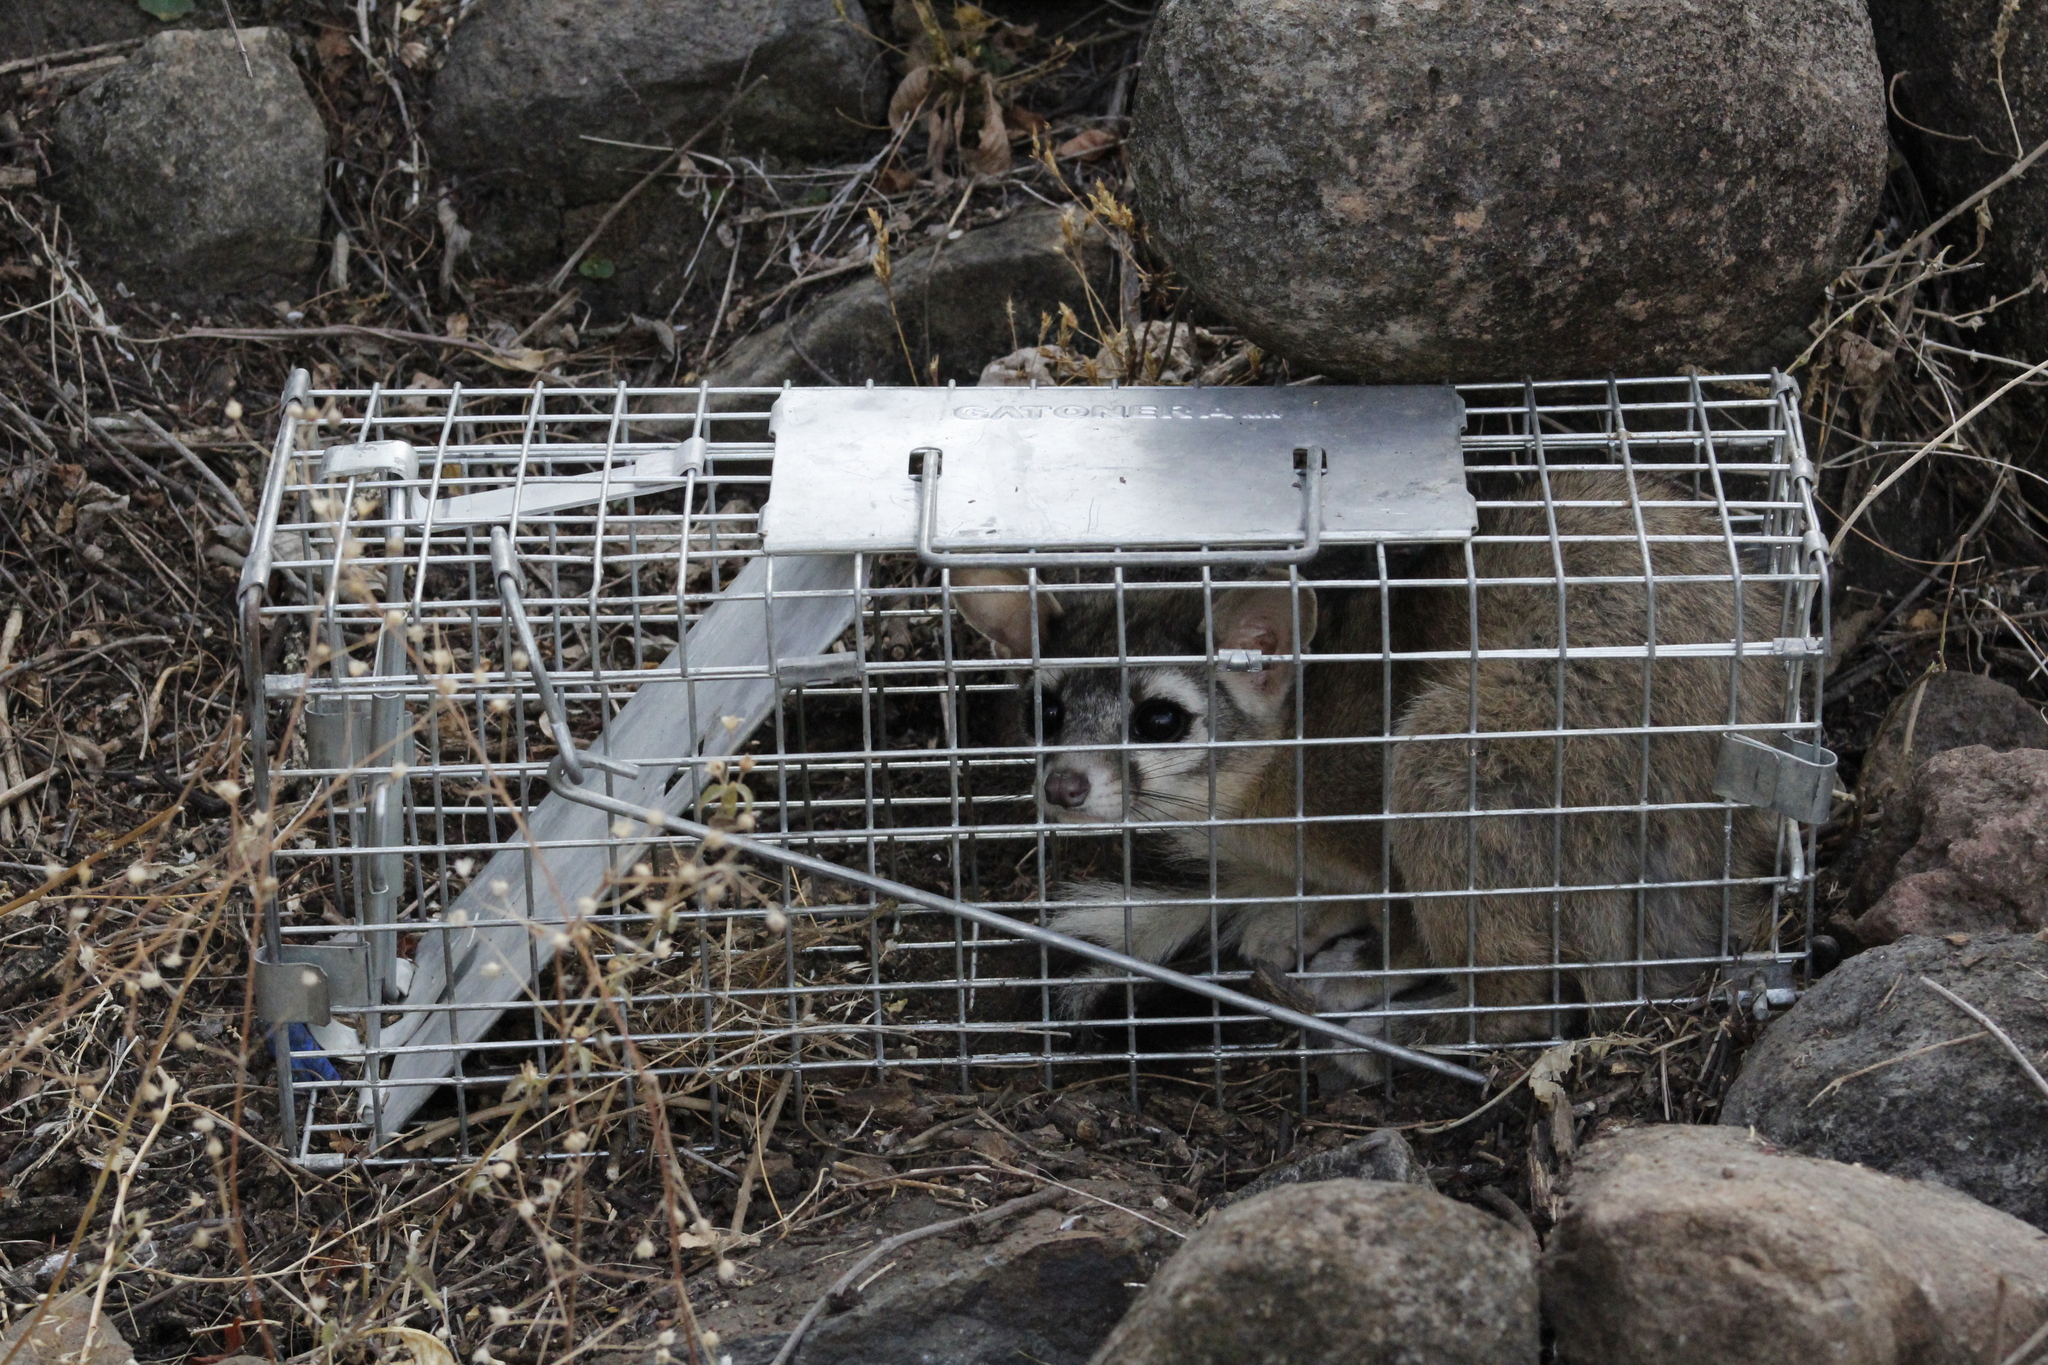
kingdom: Animalia
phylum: Chordata
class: Mammalia
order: Carnivora
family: Procyonidae
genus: Bassariscus
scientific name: Bassariscus astutus
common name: Ringtail
